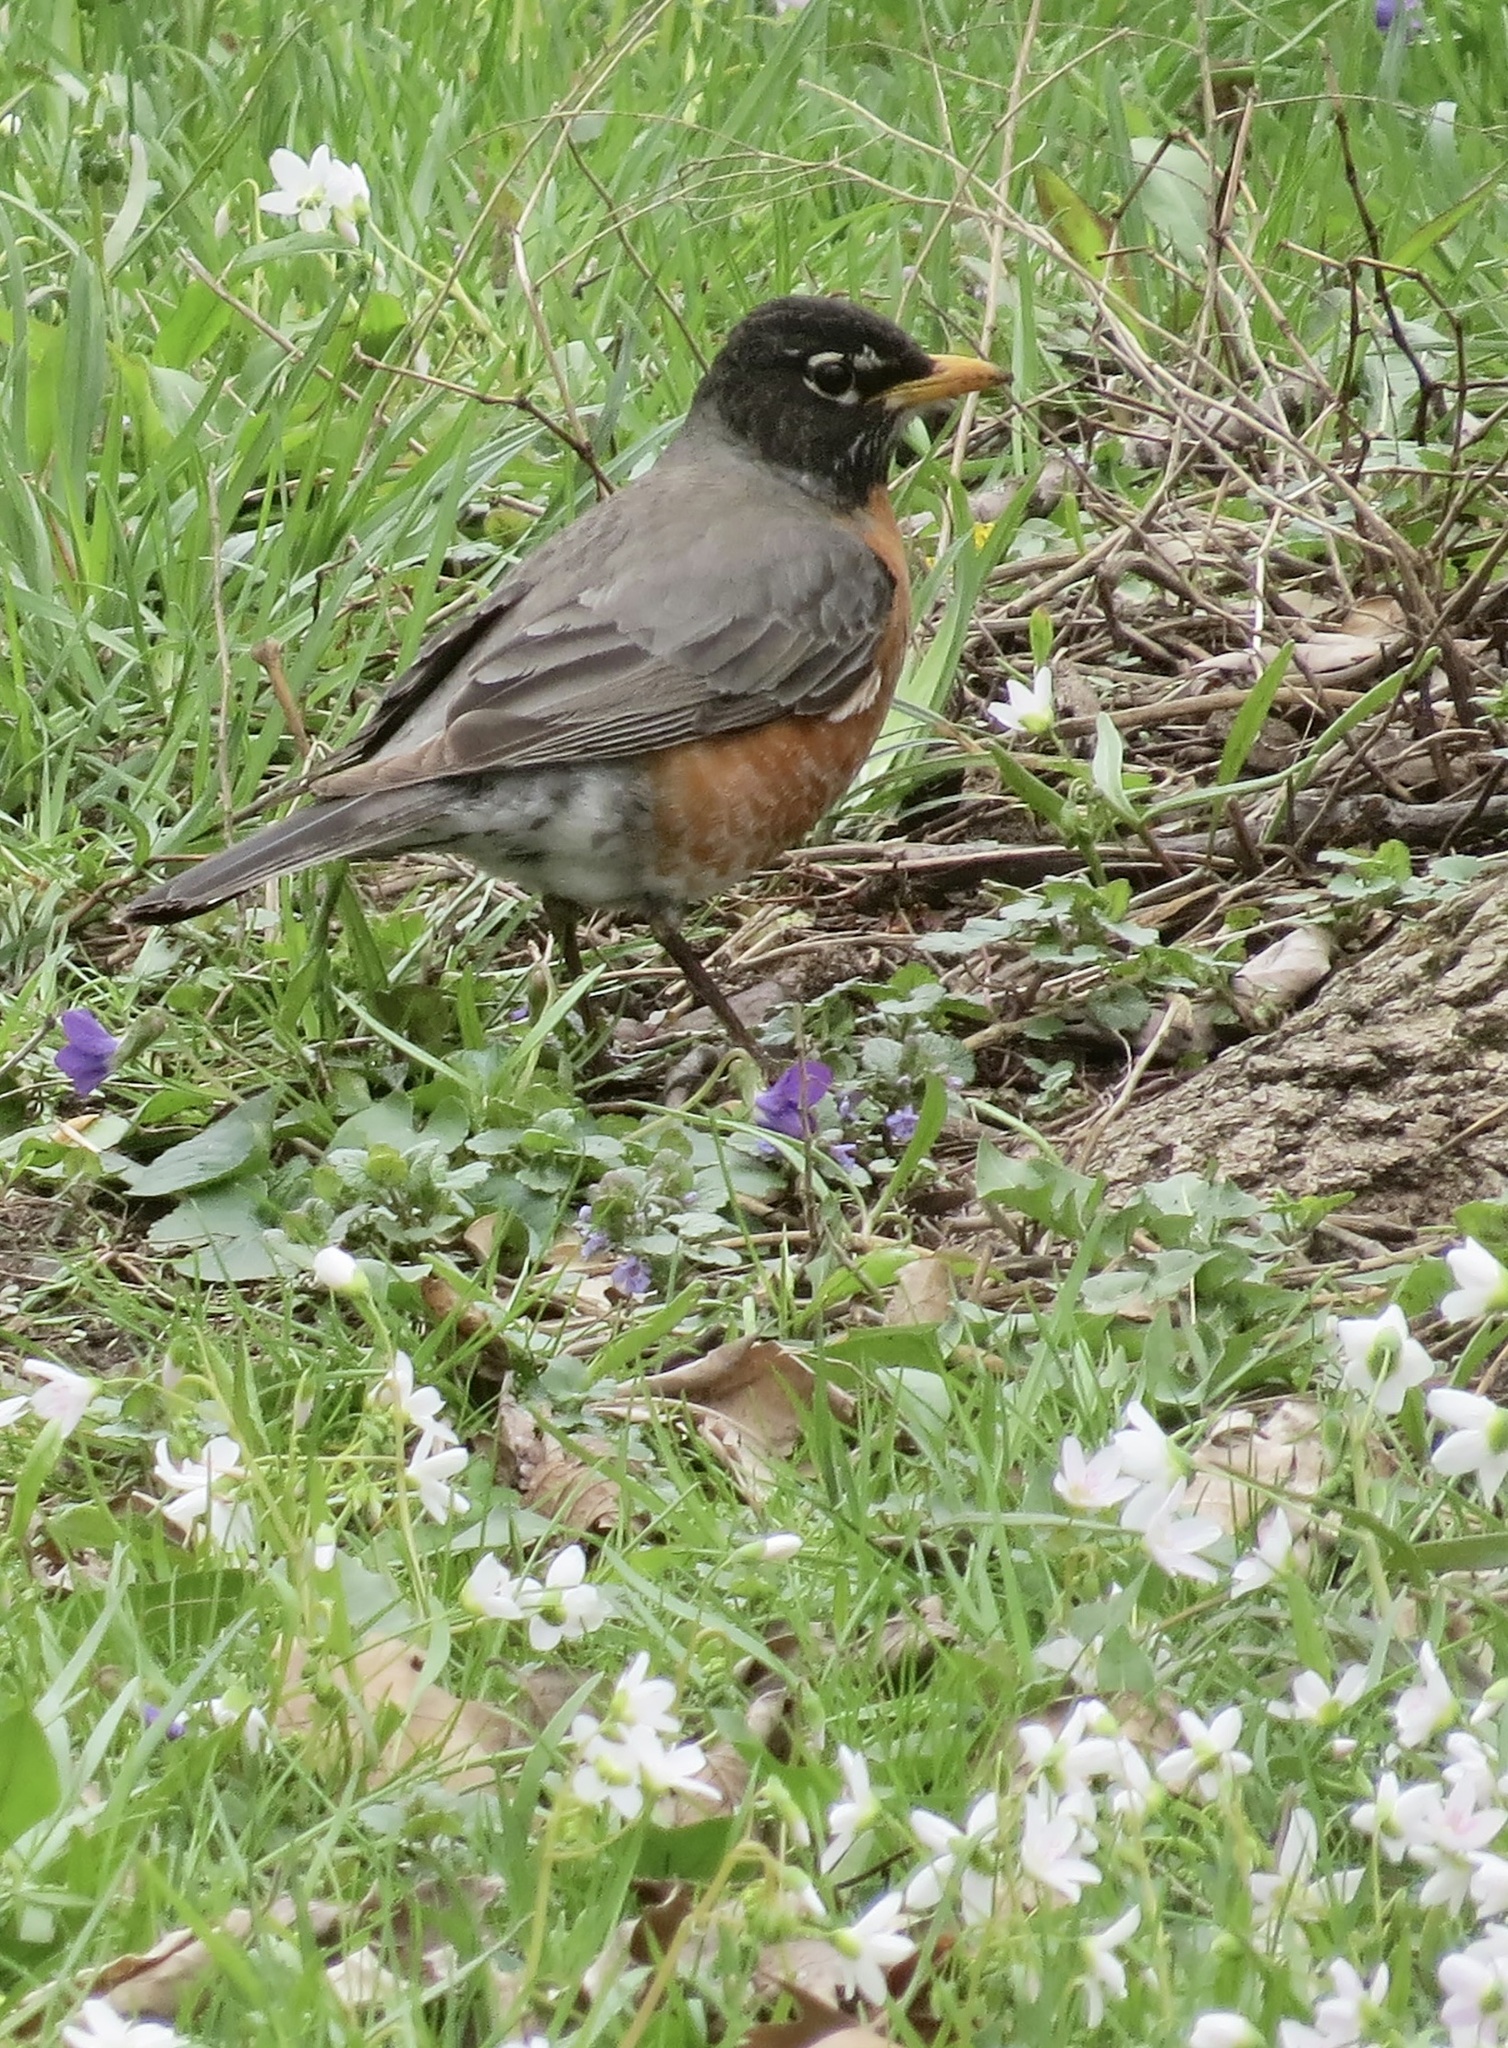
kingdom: Animalia
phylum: Chordata
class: Aves
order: Passeriformes
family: Turdidae
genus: Turdus
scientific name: Turdus migratorius
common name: American robin
